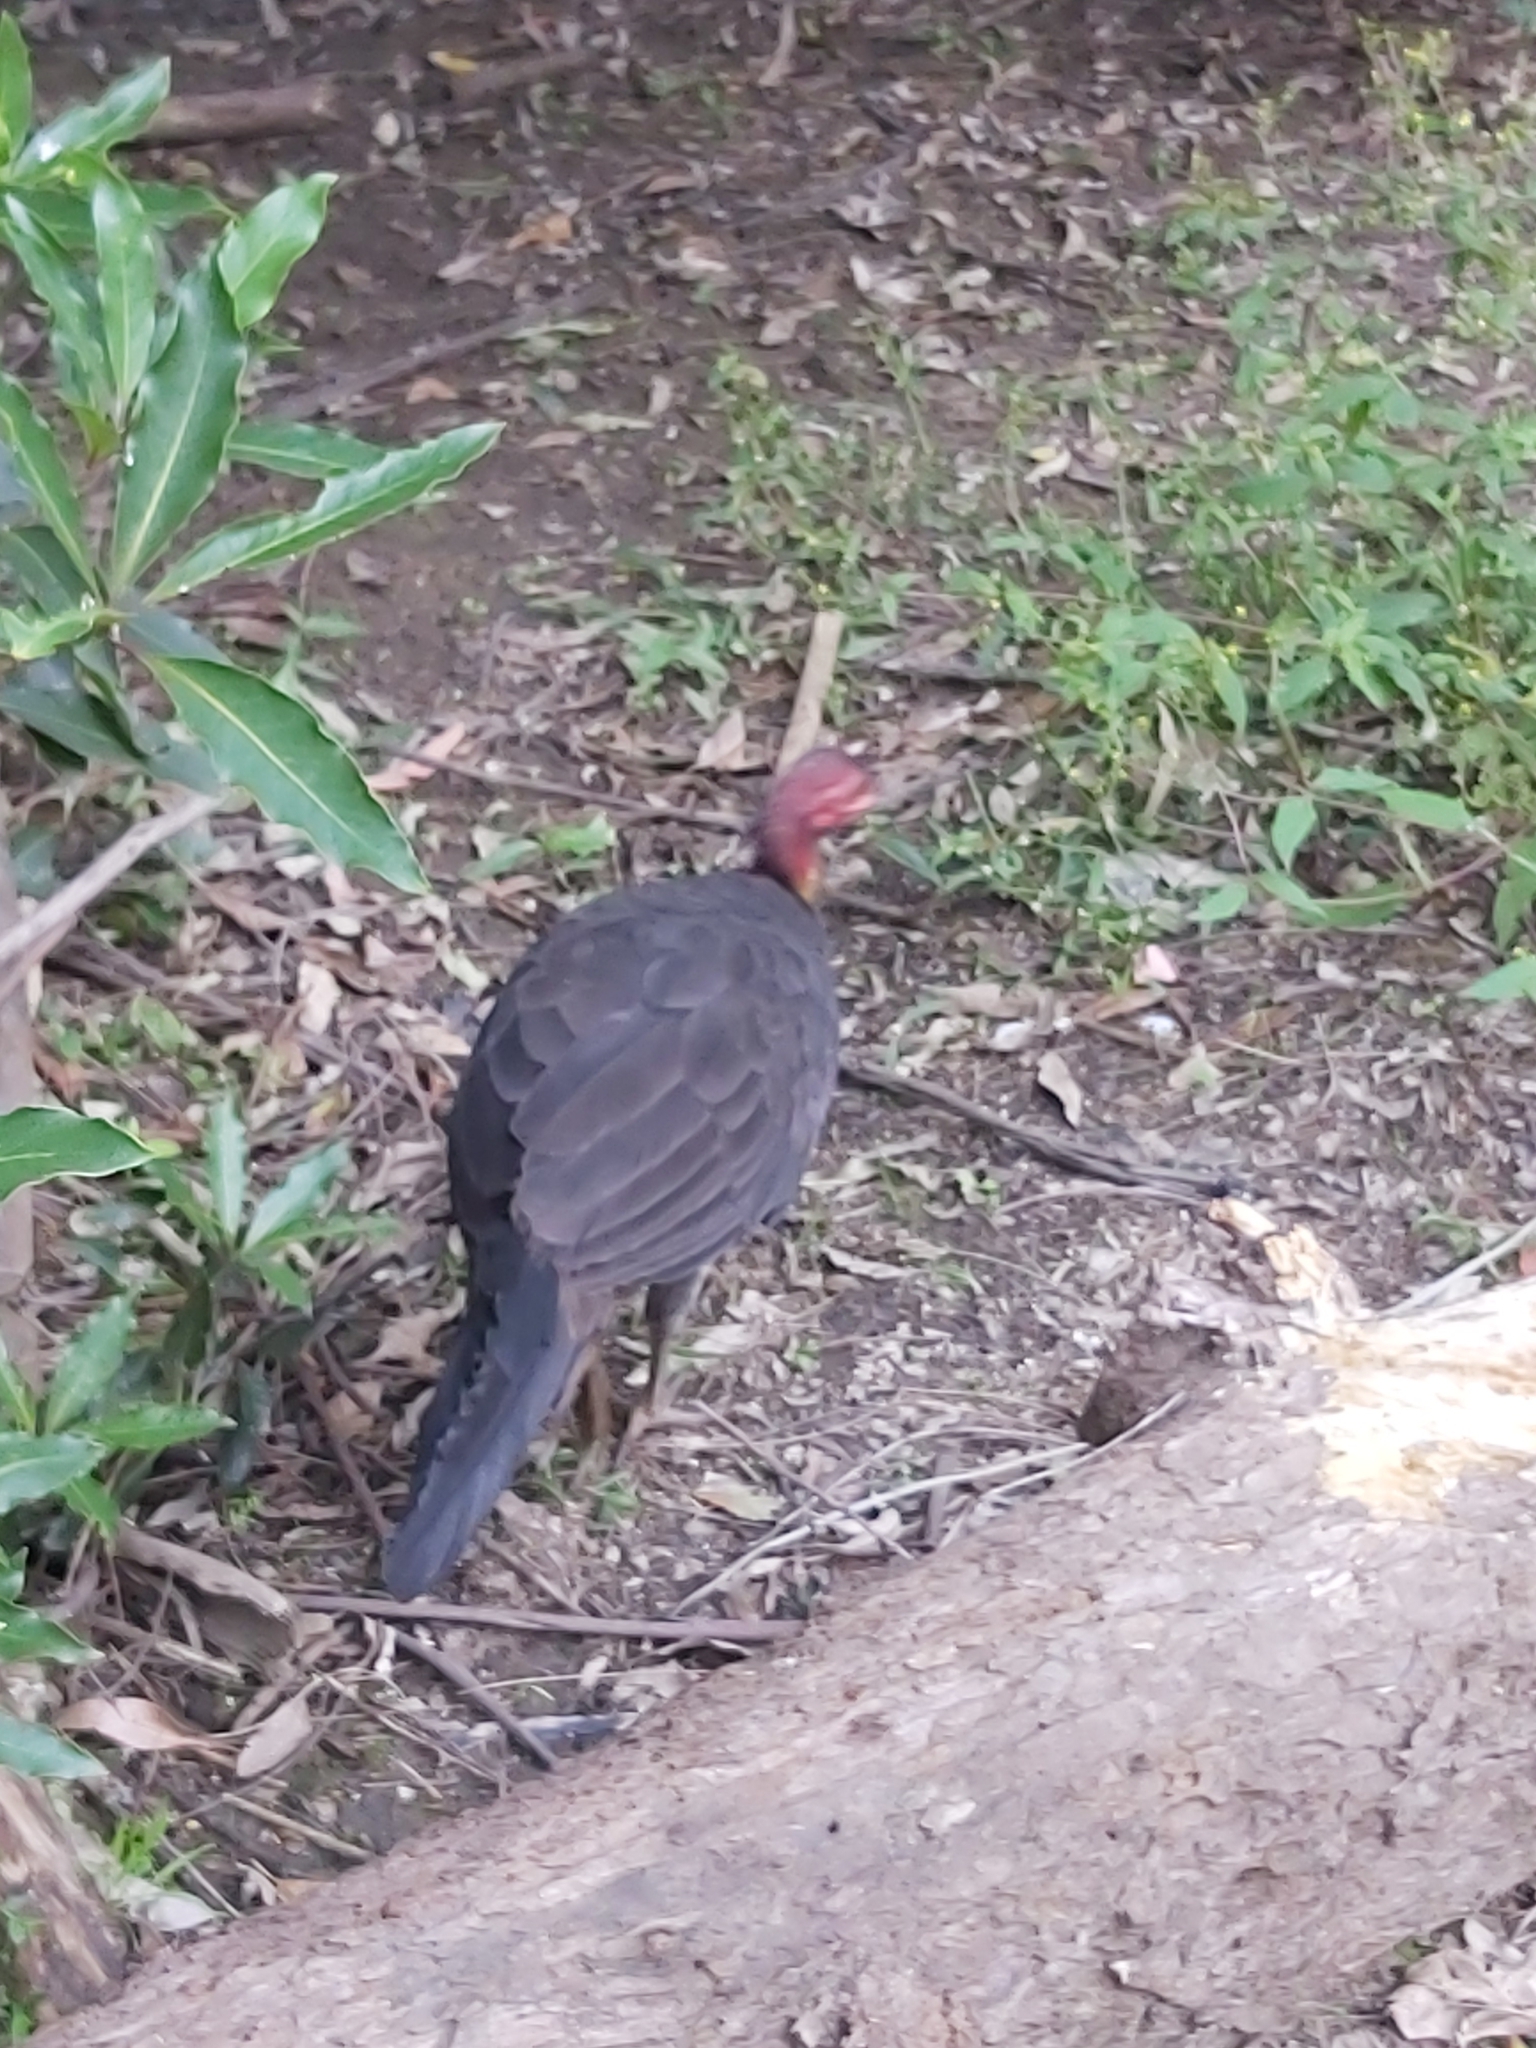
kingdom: Animalia
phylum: Chordata
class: Aves
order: Galliformes
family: Megapodiidae
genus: Alectura
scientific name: Alectura lathami
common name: Australian brushturkey
